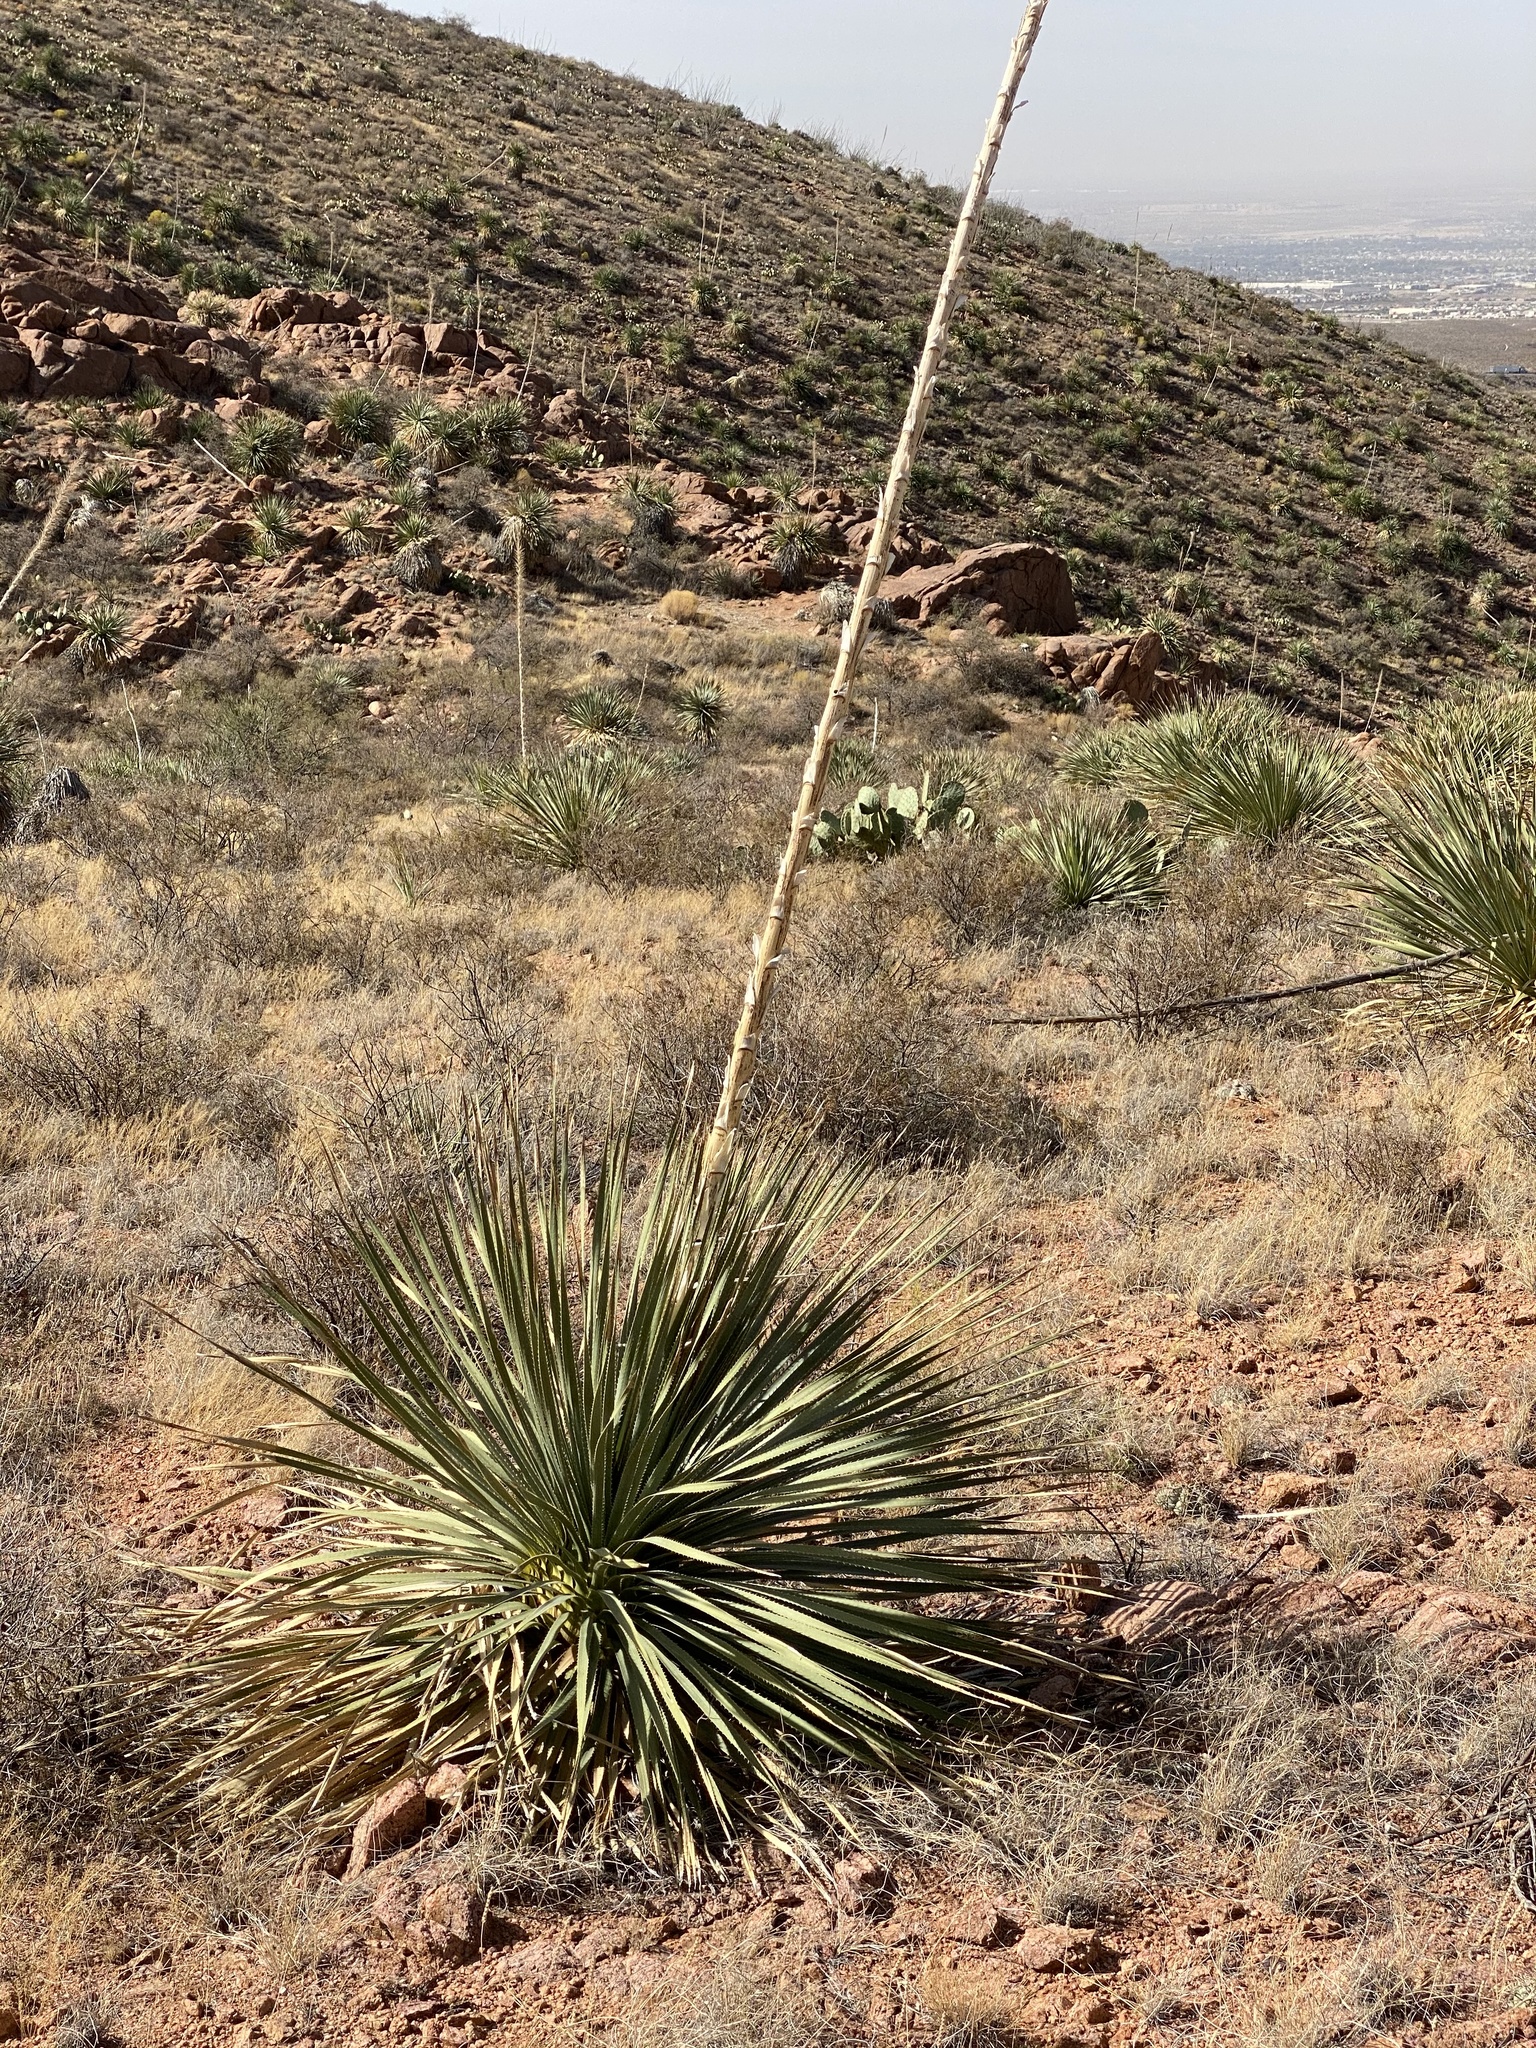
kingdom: Plantae
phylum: Tracheophyta
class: Liliopsida
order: Asparagales
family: Asparagaceae
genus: Dasylirion
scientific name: Dasylirion wheeleri
